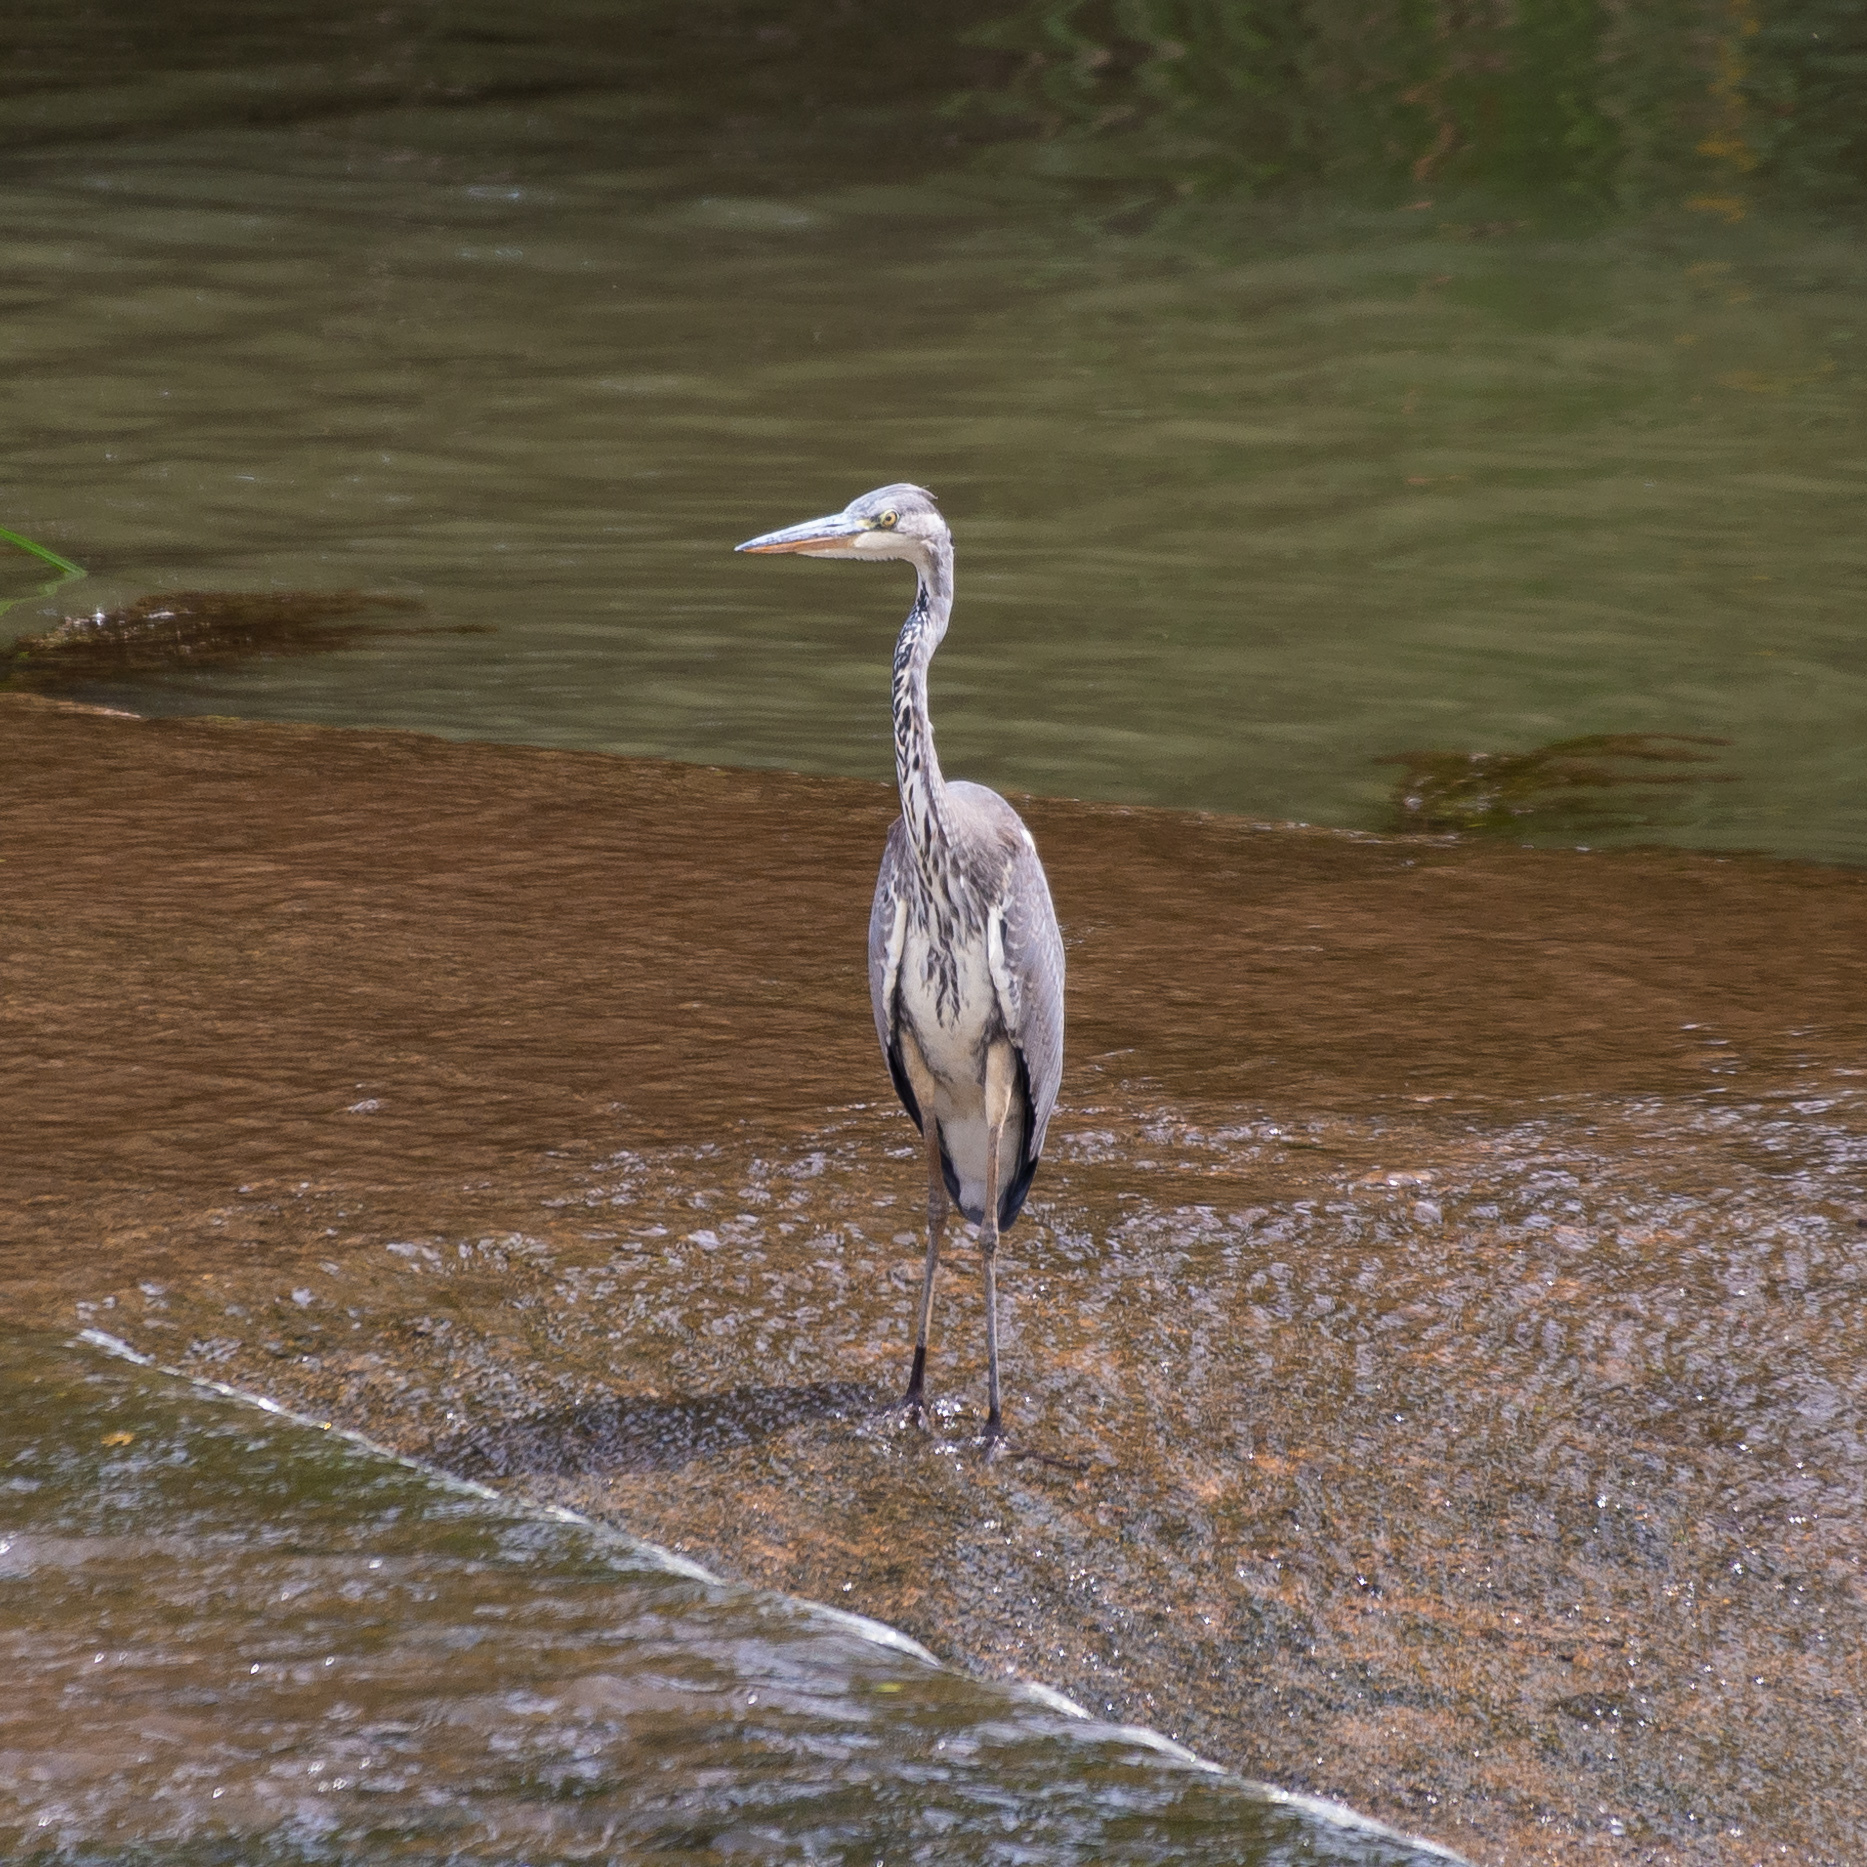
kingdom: Animalia
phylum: Chordata
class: Aves
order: Pelecaniformes
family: Ardeidae
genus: Ardea
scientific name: Ardea cinerea
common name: Grey heron
